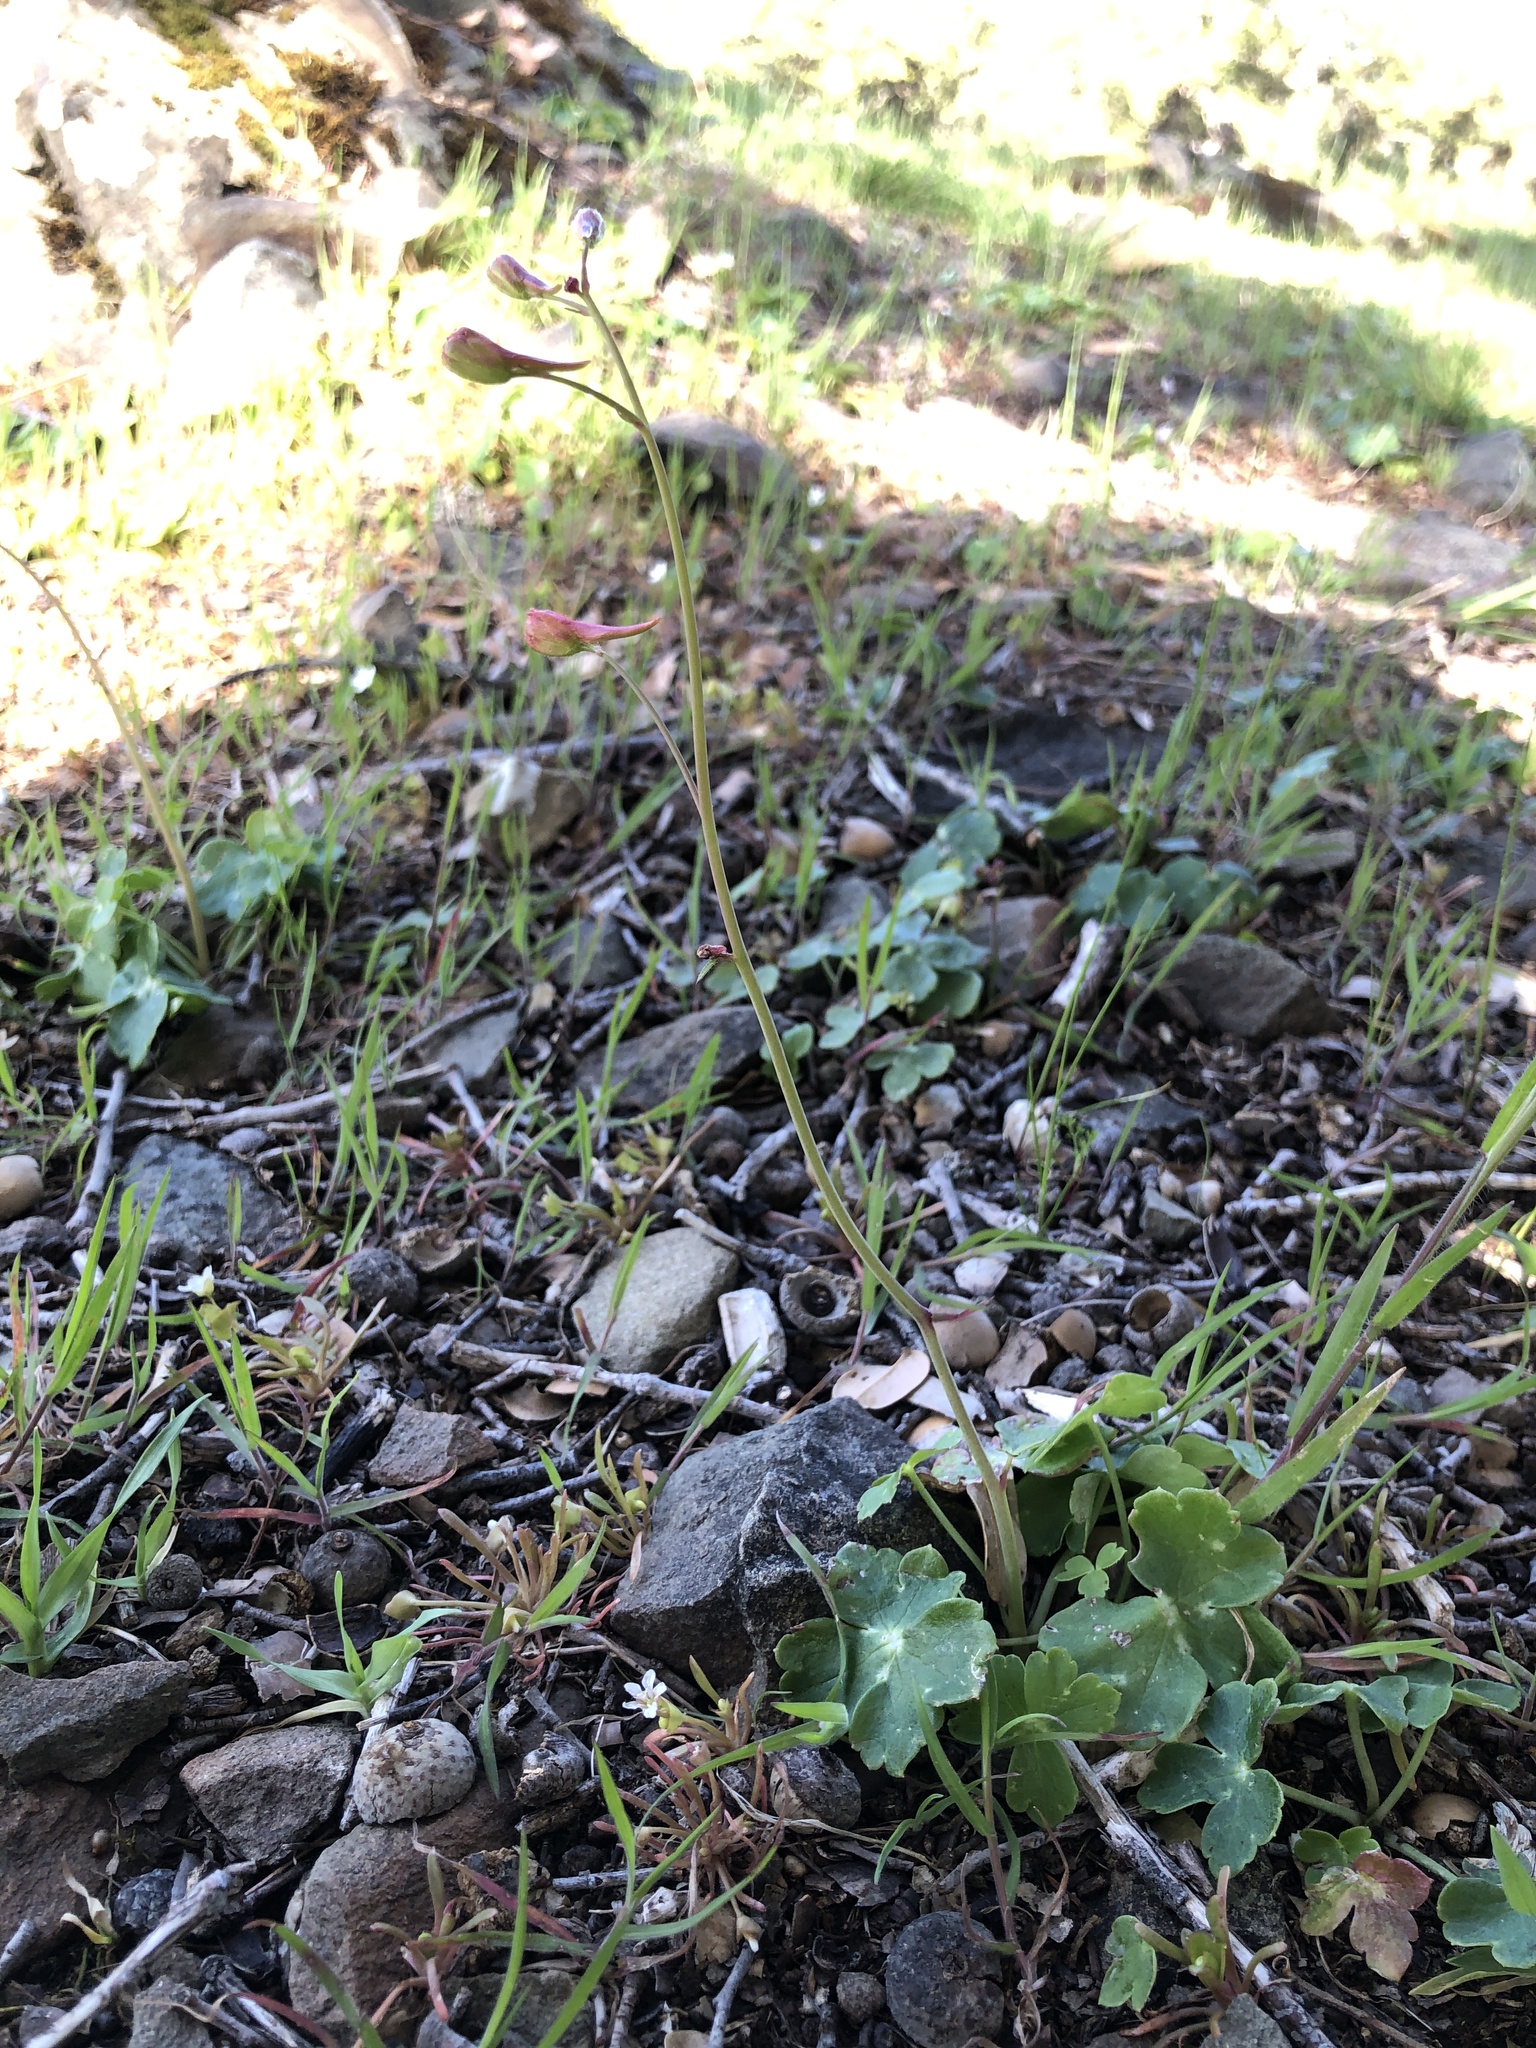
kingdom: Plantae
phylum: Tracheophyta
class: Magnoliopsida
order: Ranunculales
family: Ranunculaceae
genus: Delphinium
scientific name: Delphinium nudicaule
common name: Red larkspur
